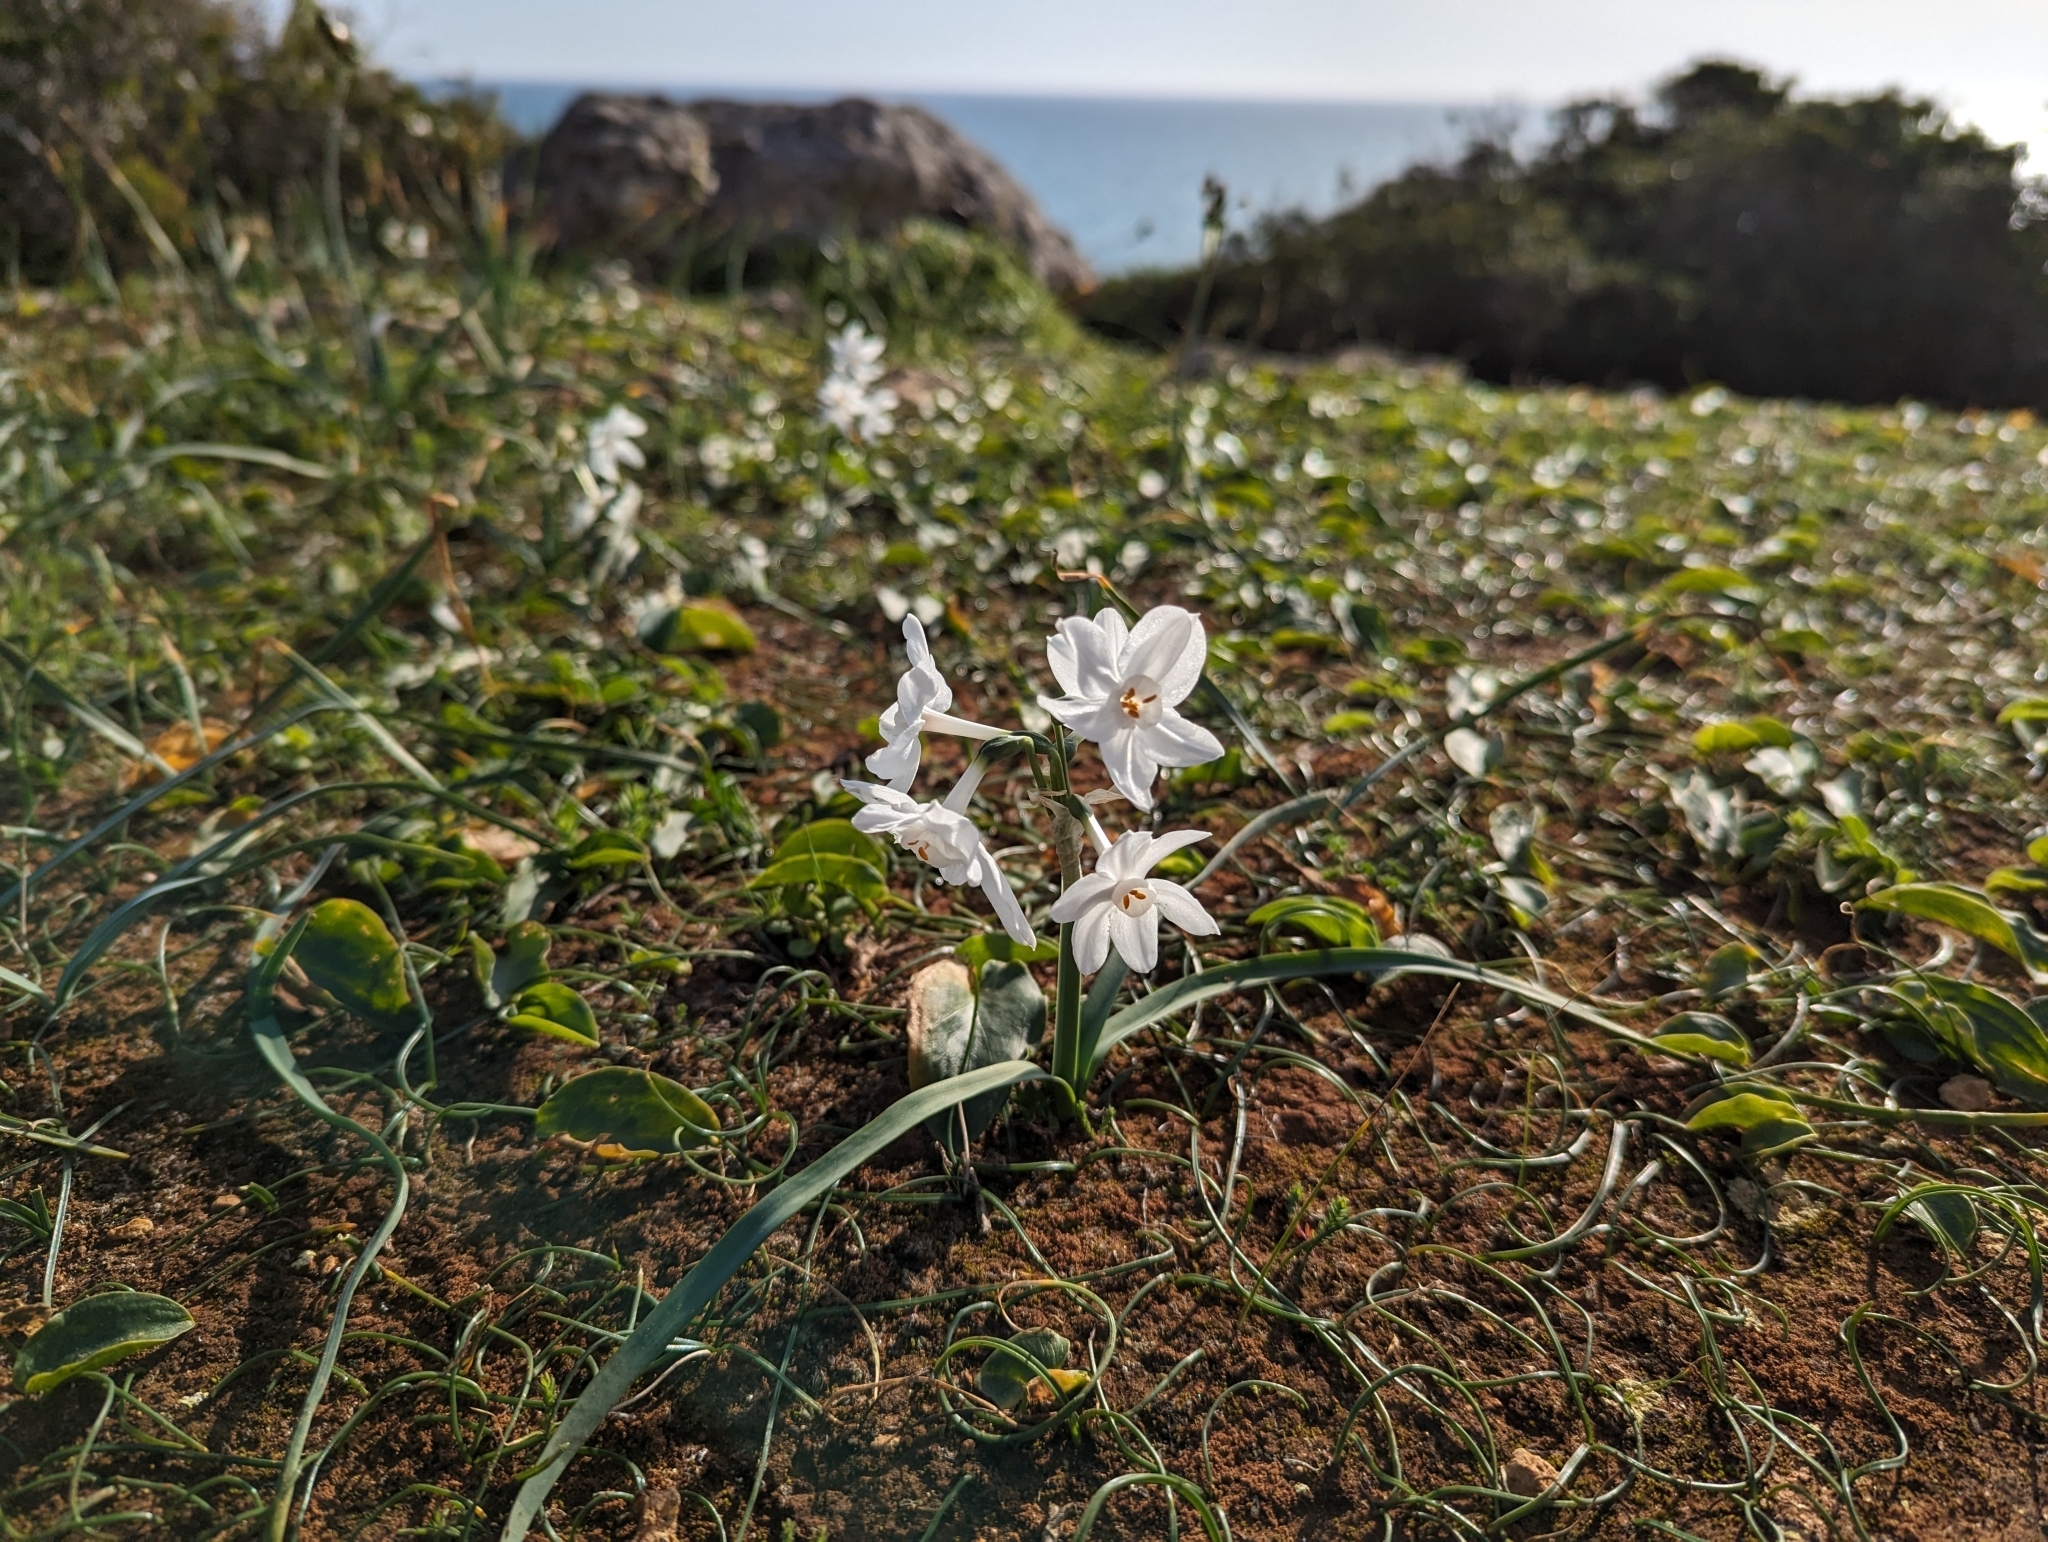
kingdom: Plantae
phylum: Tracheophyta
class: Liliopsida
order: Asparagales
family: Amaryllidaceae
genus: Narcissus
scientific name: Narcissus papyraceus
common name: Paper-white daffodil
